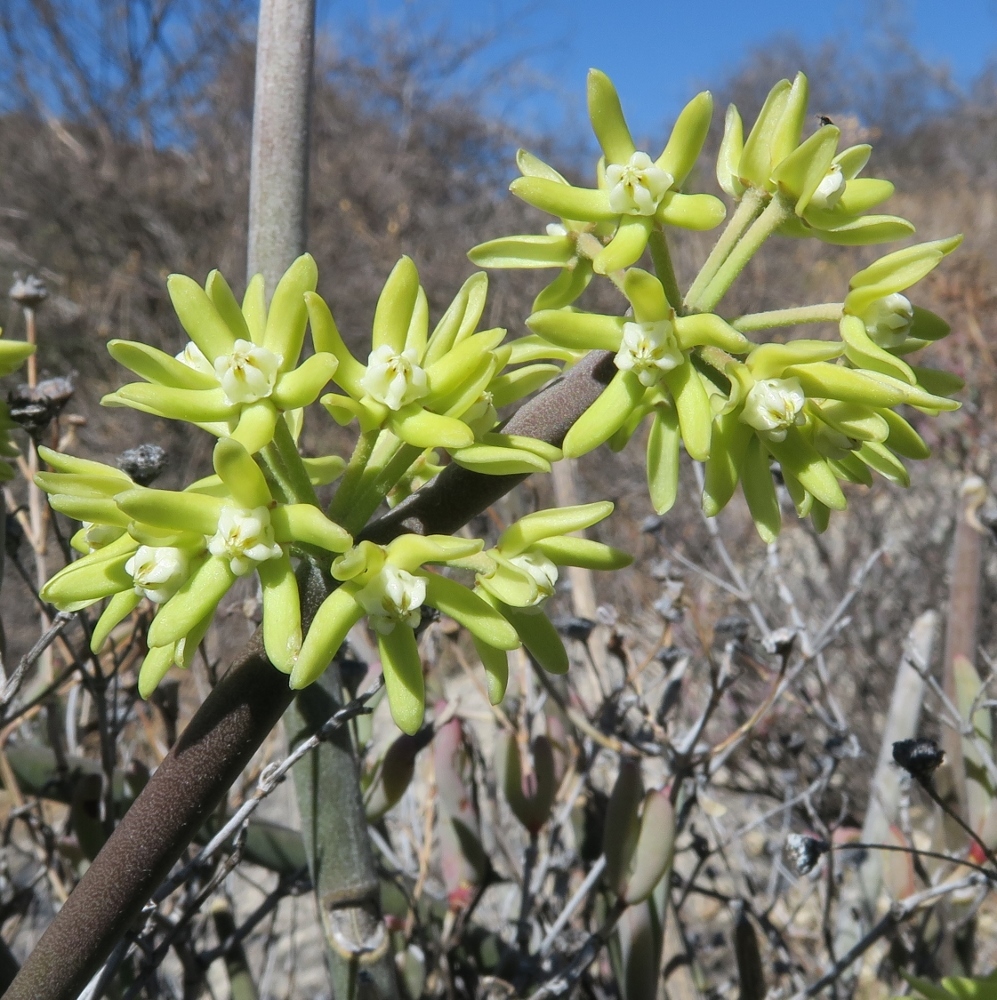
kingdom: Plantae
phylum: Tracheophyta
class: Magnoliopsida
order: Gentianales
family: Apocynaceae
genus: Cynanchum
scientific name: Cynanchum viminale
